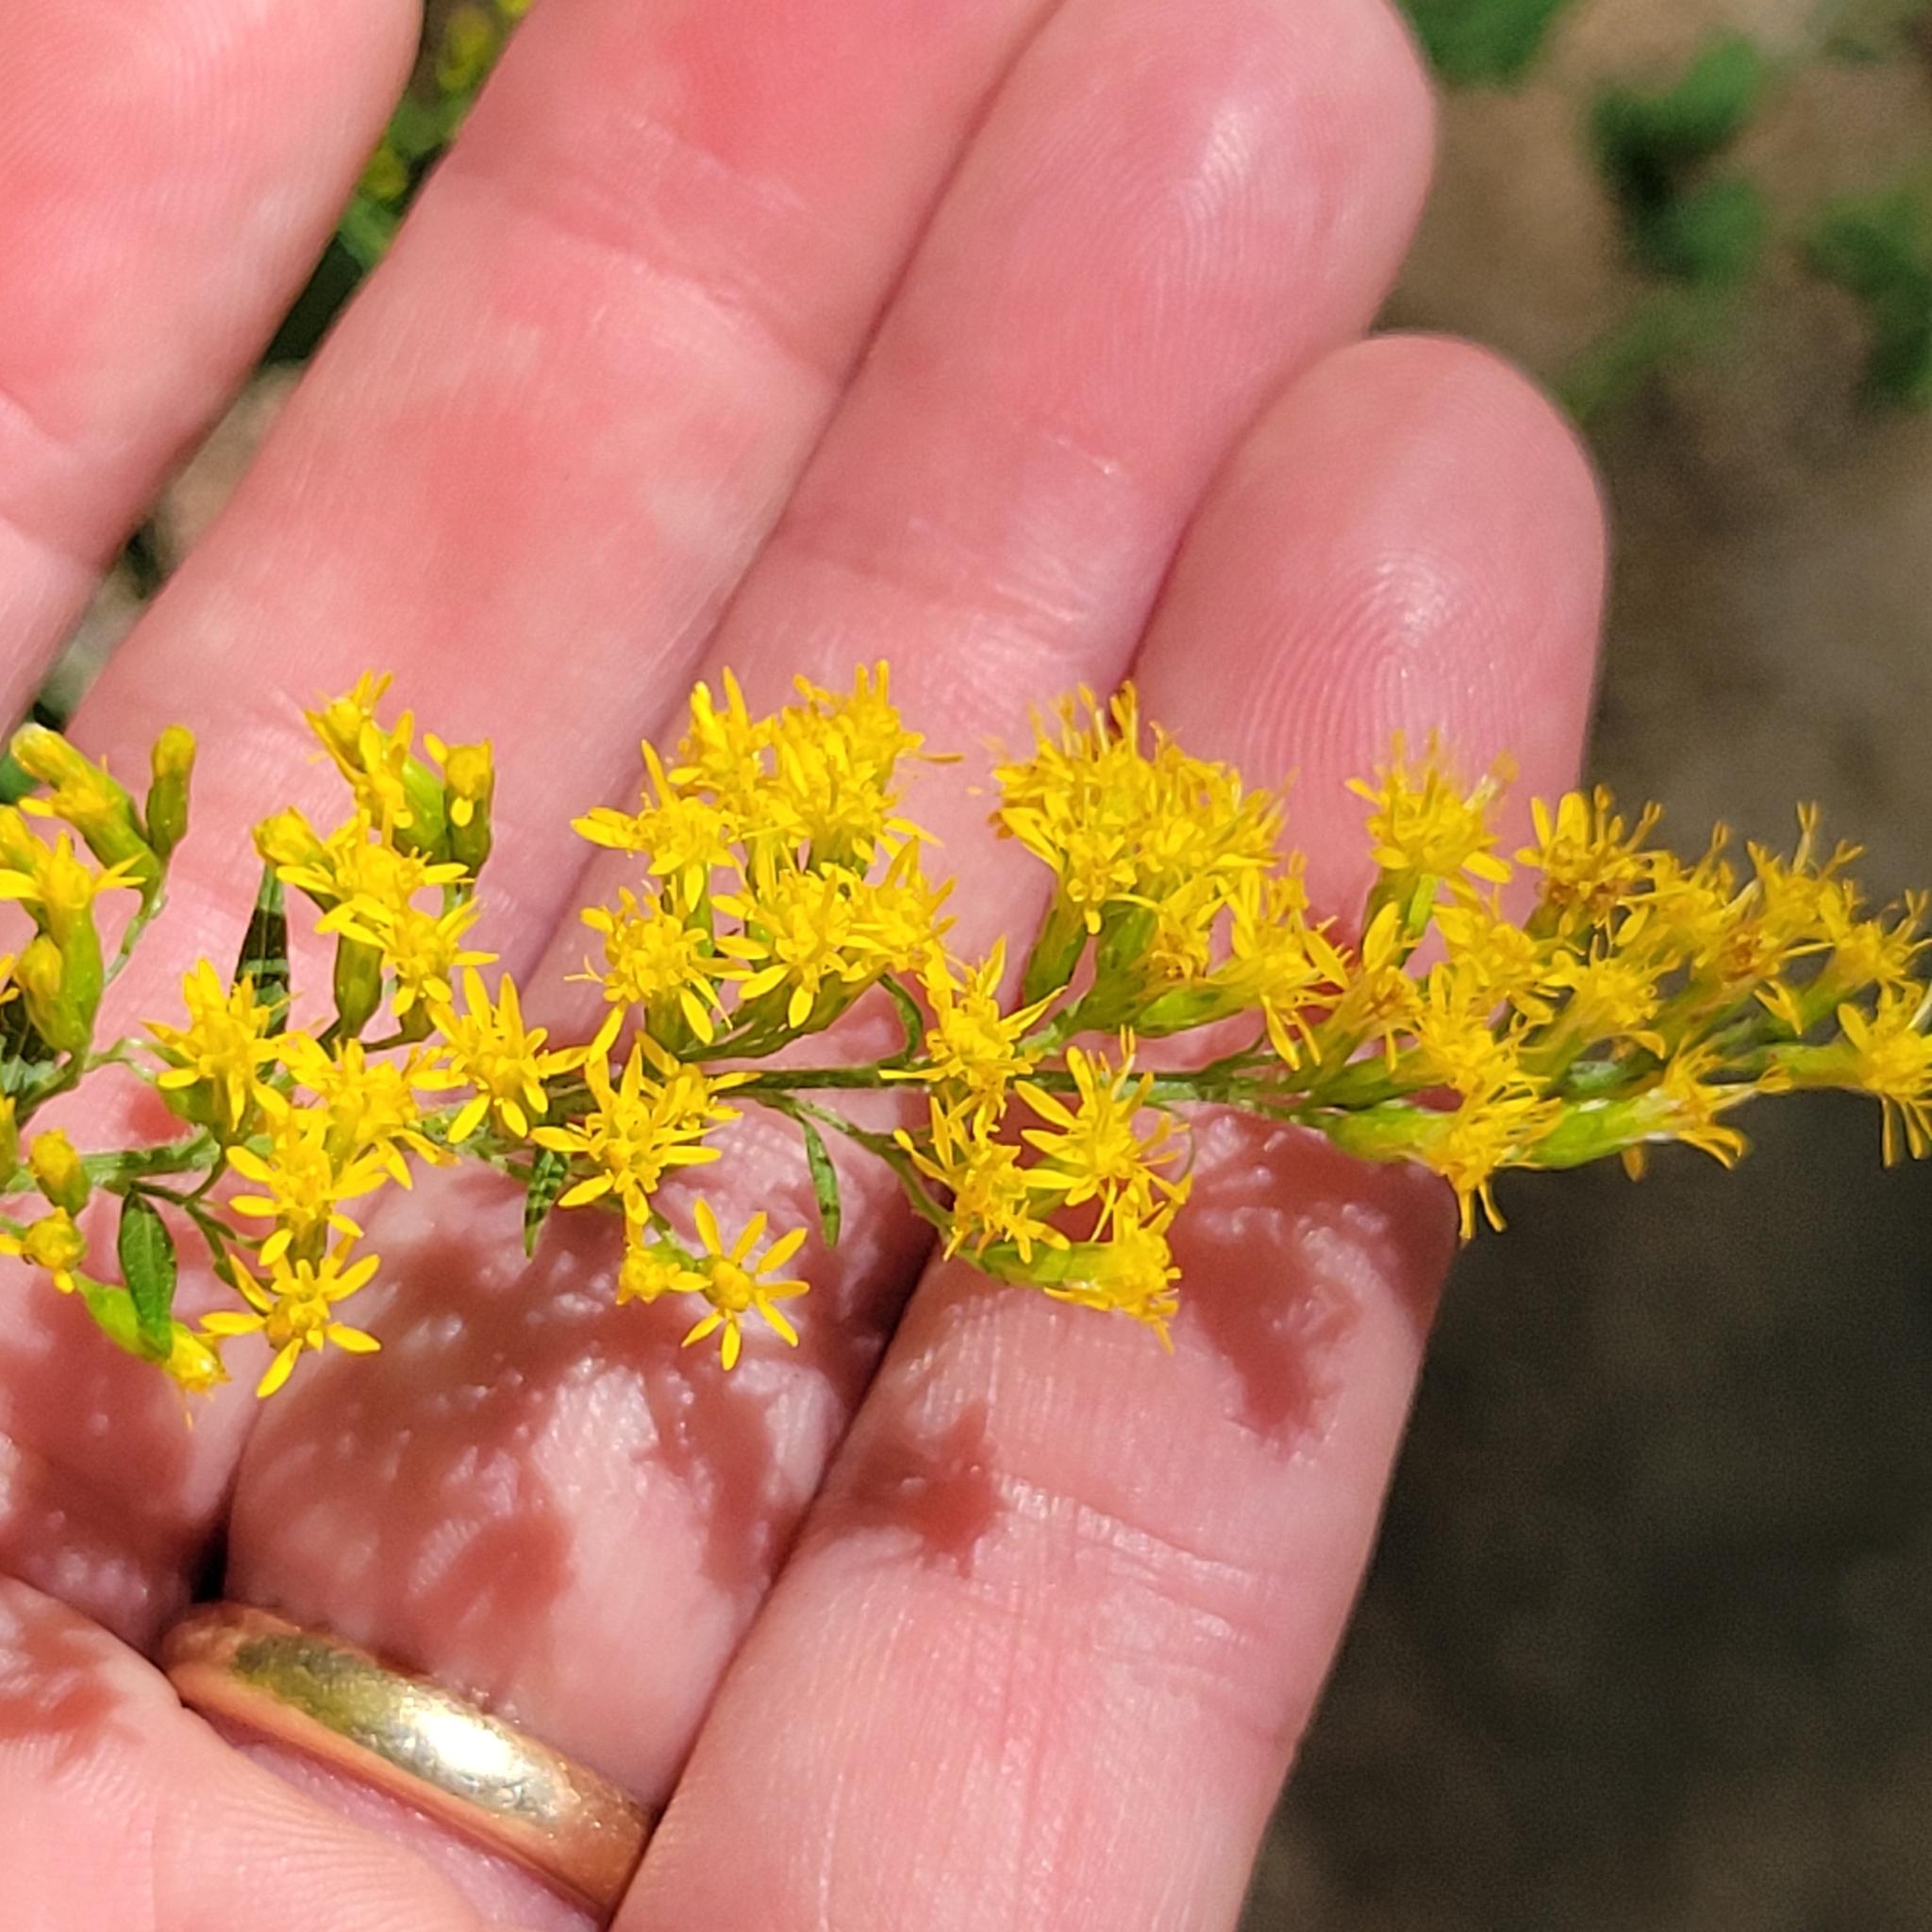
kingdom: Plantae
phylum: Tracheophyta
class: Magnoliopsida
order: Asterales
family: Asteraceae
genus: Solidago
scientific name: Solidago rugosa
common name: Rough-stemmed goldenrod
